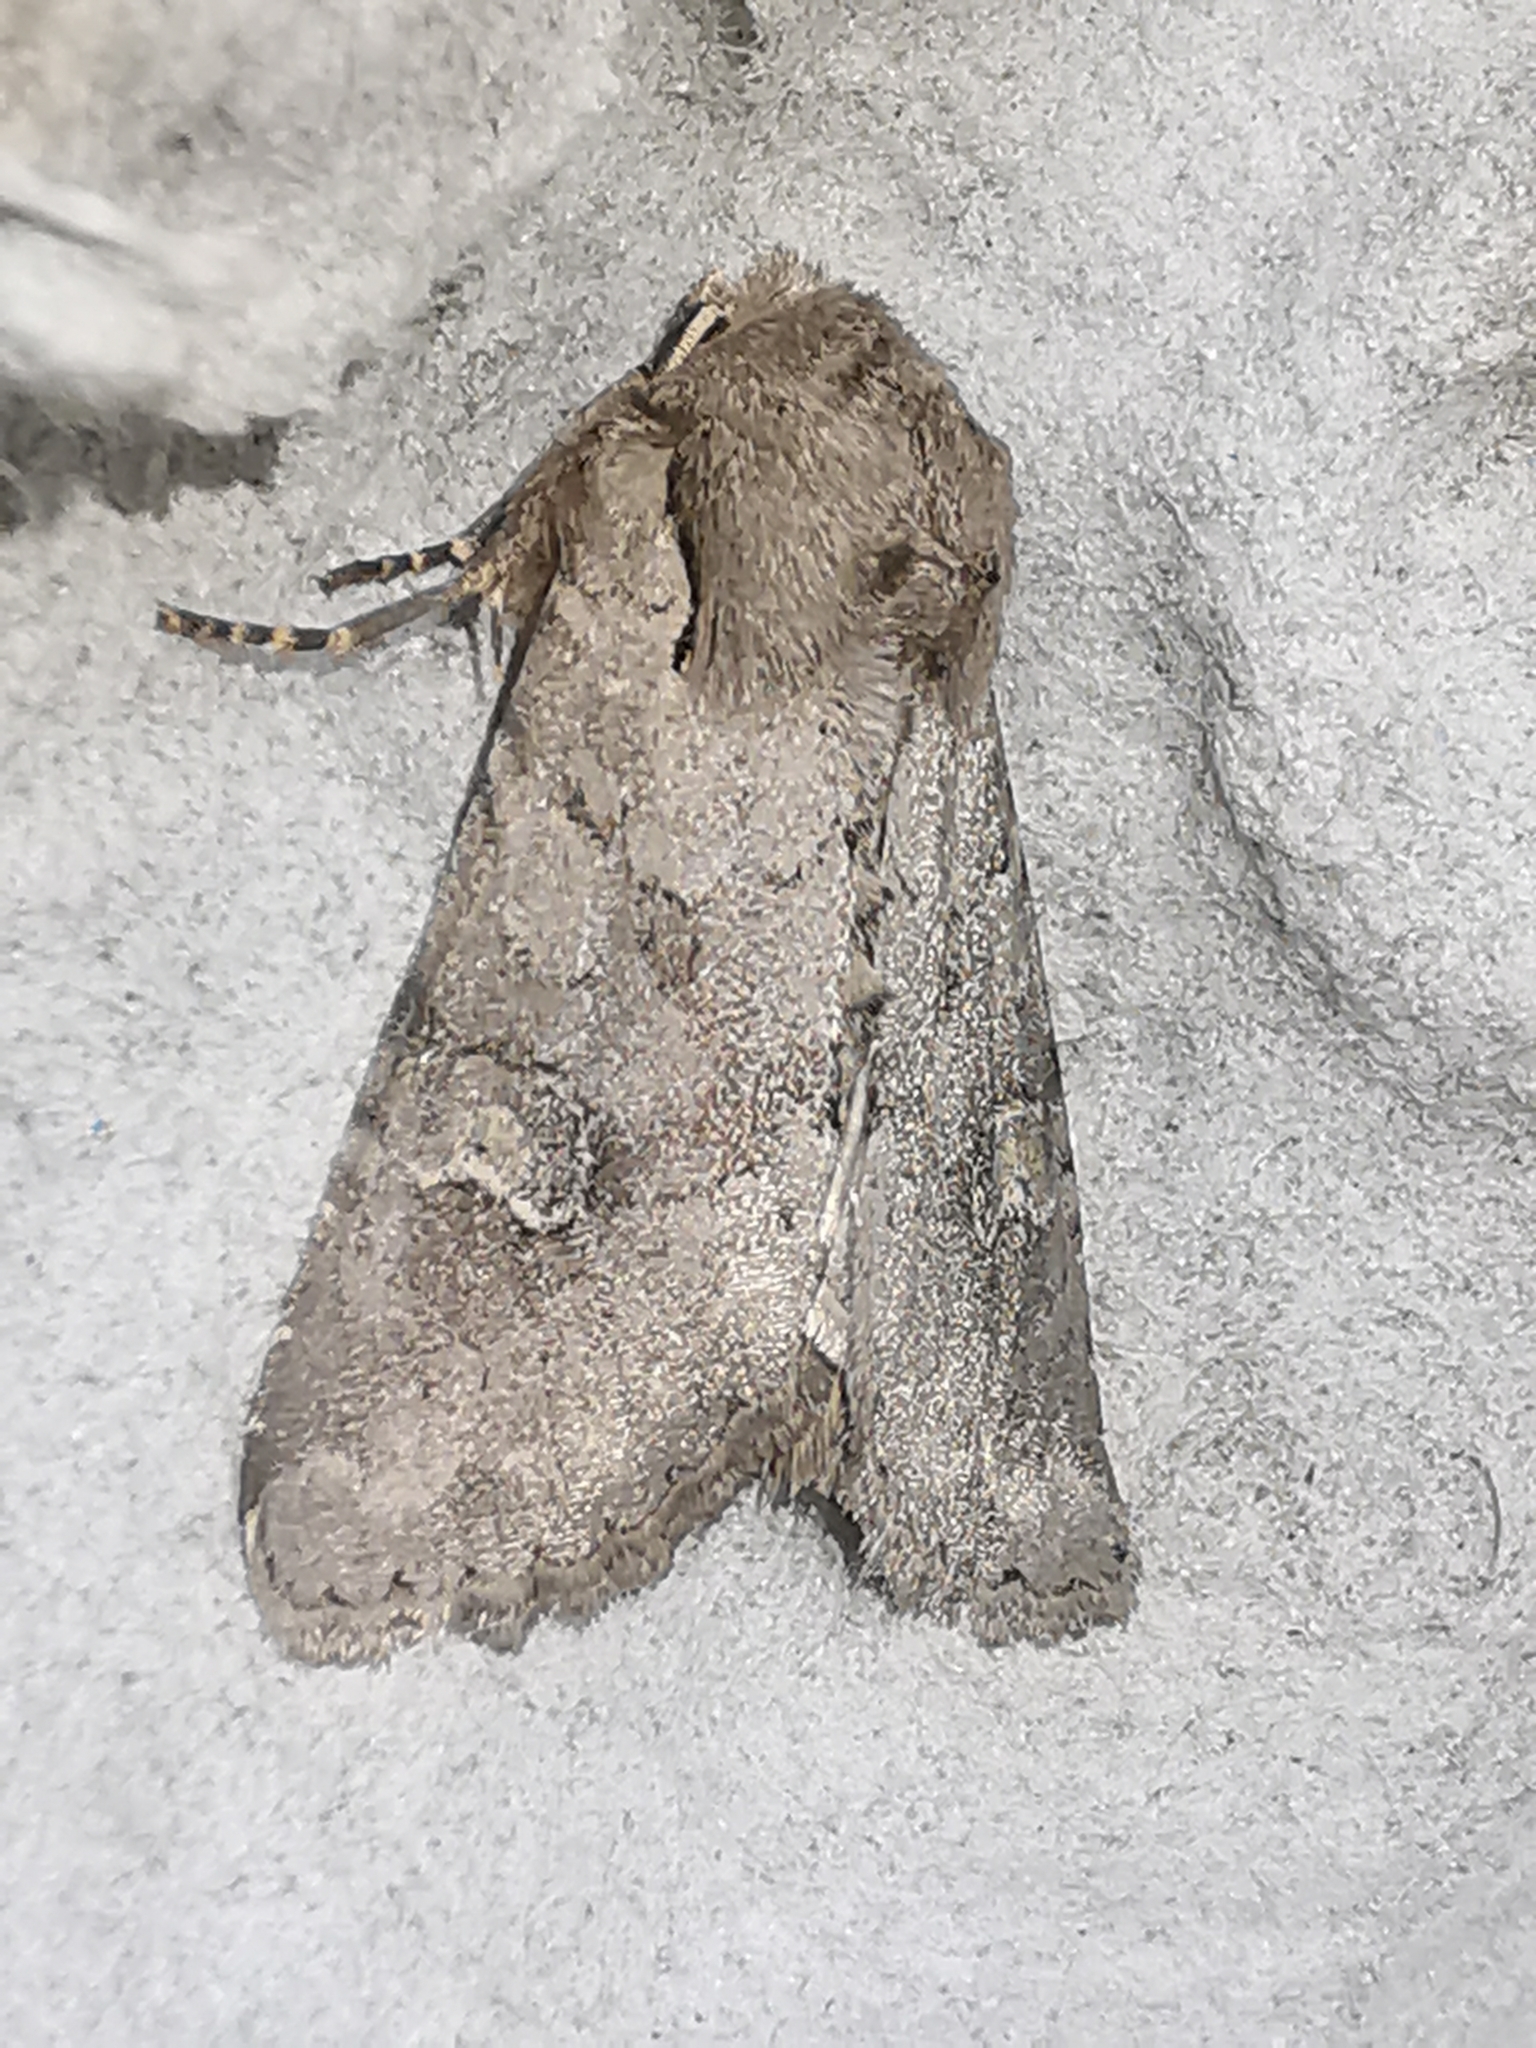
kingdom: Animalia
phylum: Arthropoda
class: Insecta
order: Lepidoptera
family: Noctuidae
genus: Apamea
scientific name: Apamea sordens
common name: Rustic shoulder-knot
